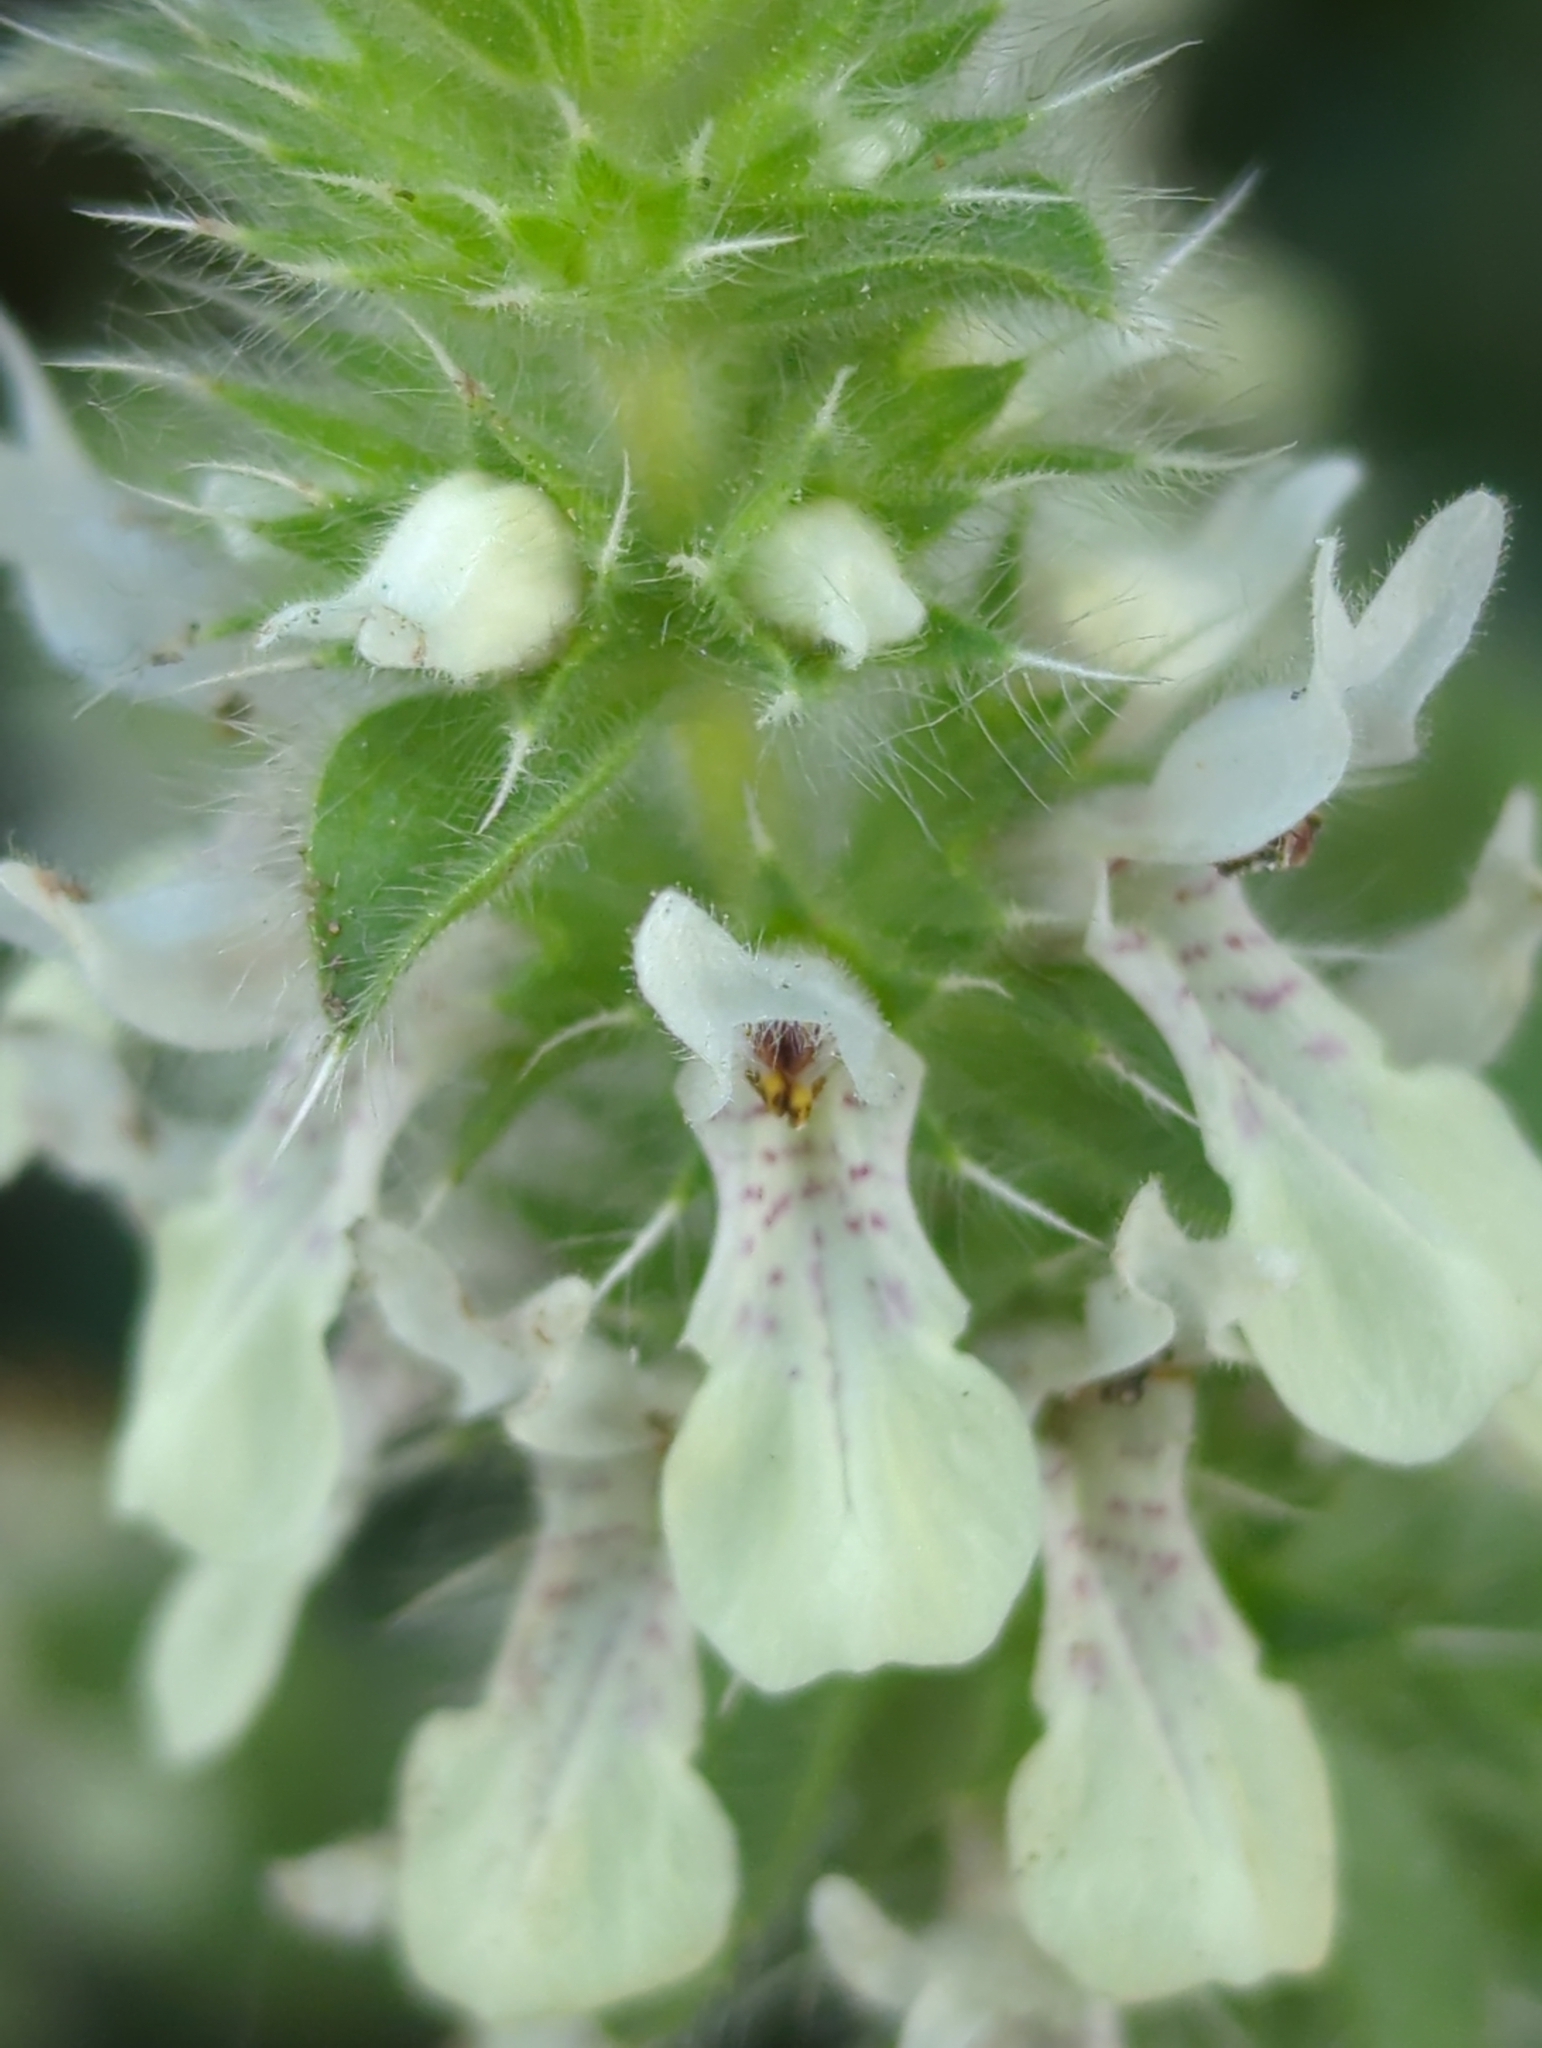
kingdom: Plantae
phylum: Tracheophyta
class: Magnoliopsida
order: Lamiales
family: Lamiaceae
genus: Stachys
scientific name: Stachys ocymastrum
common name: Italian hedgenettle
